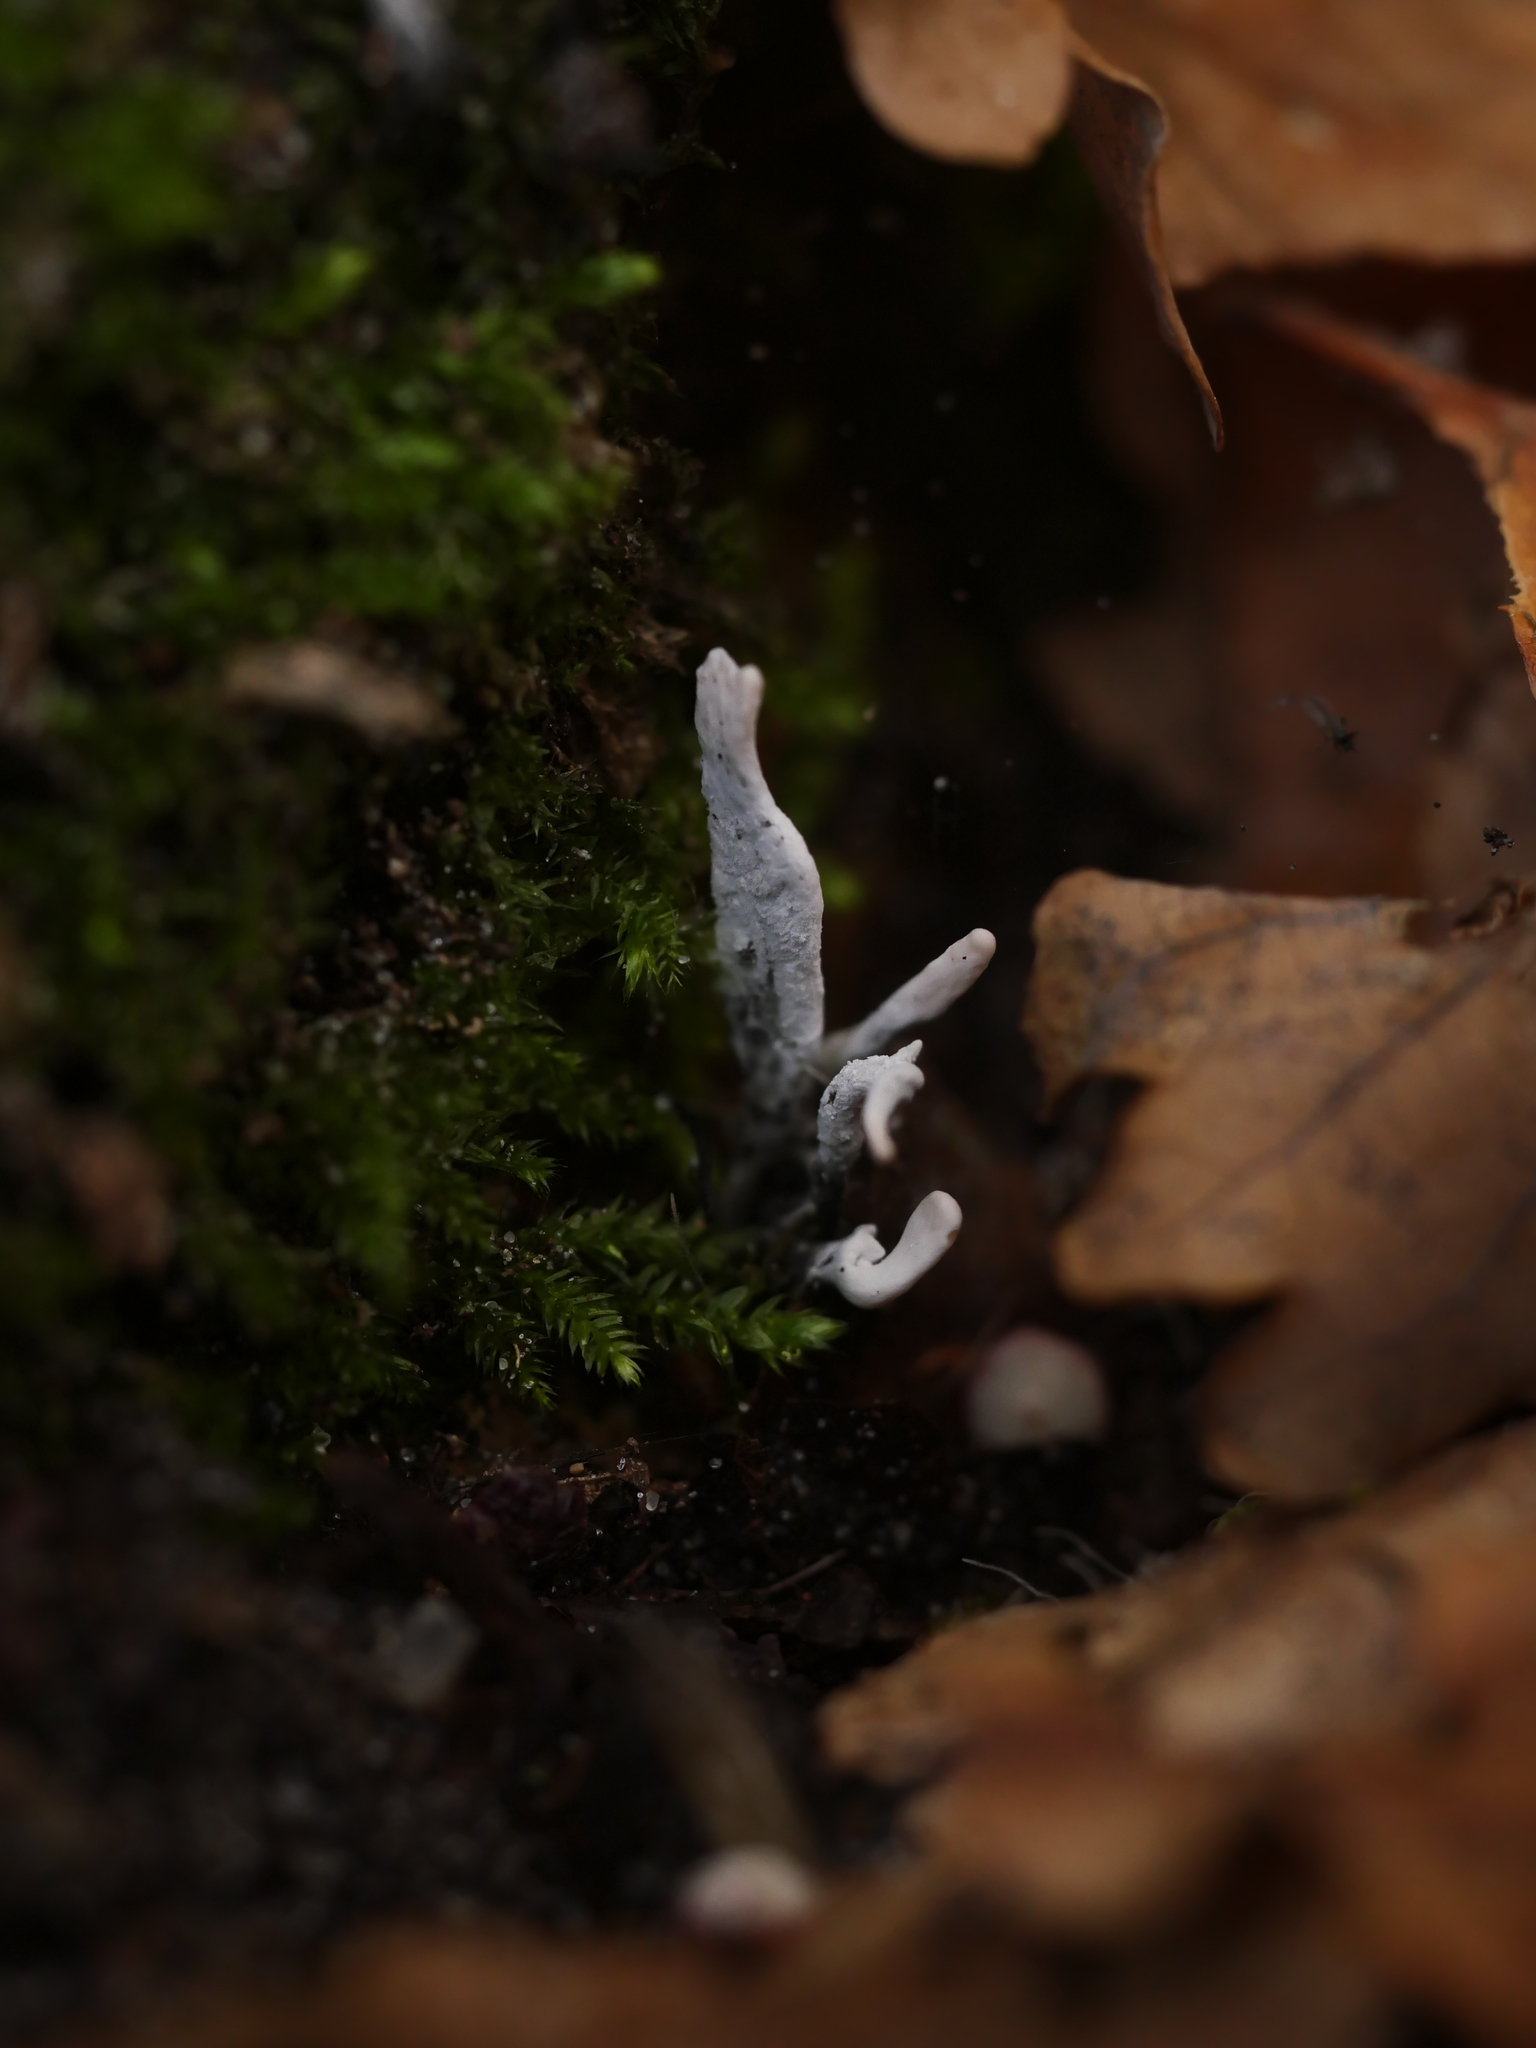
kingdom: Fungi
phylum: Ascomycota
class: Sordariomycetes
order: Xylariales
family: Xylariaceae
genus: Xylaria
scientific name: Xylaria hypoxylon
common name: Candle-snuff fungus
